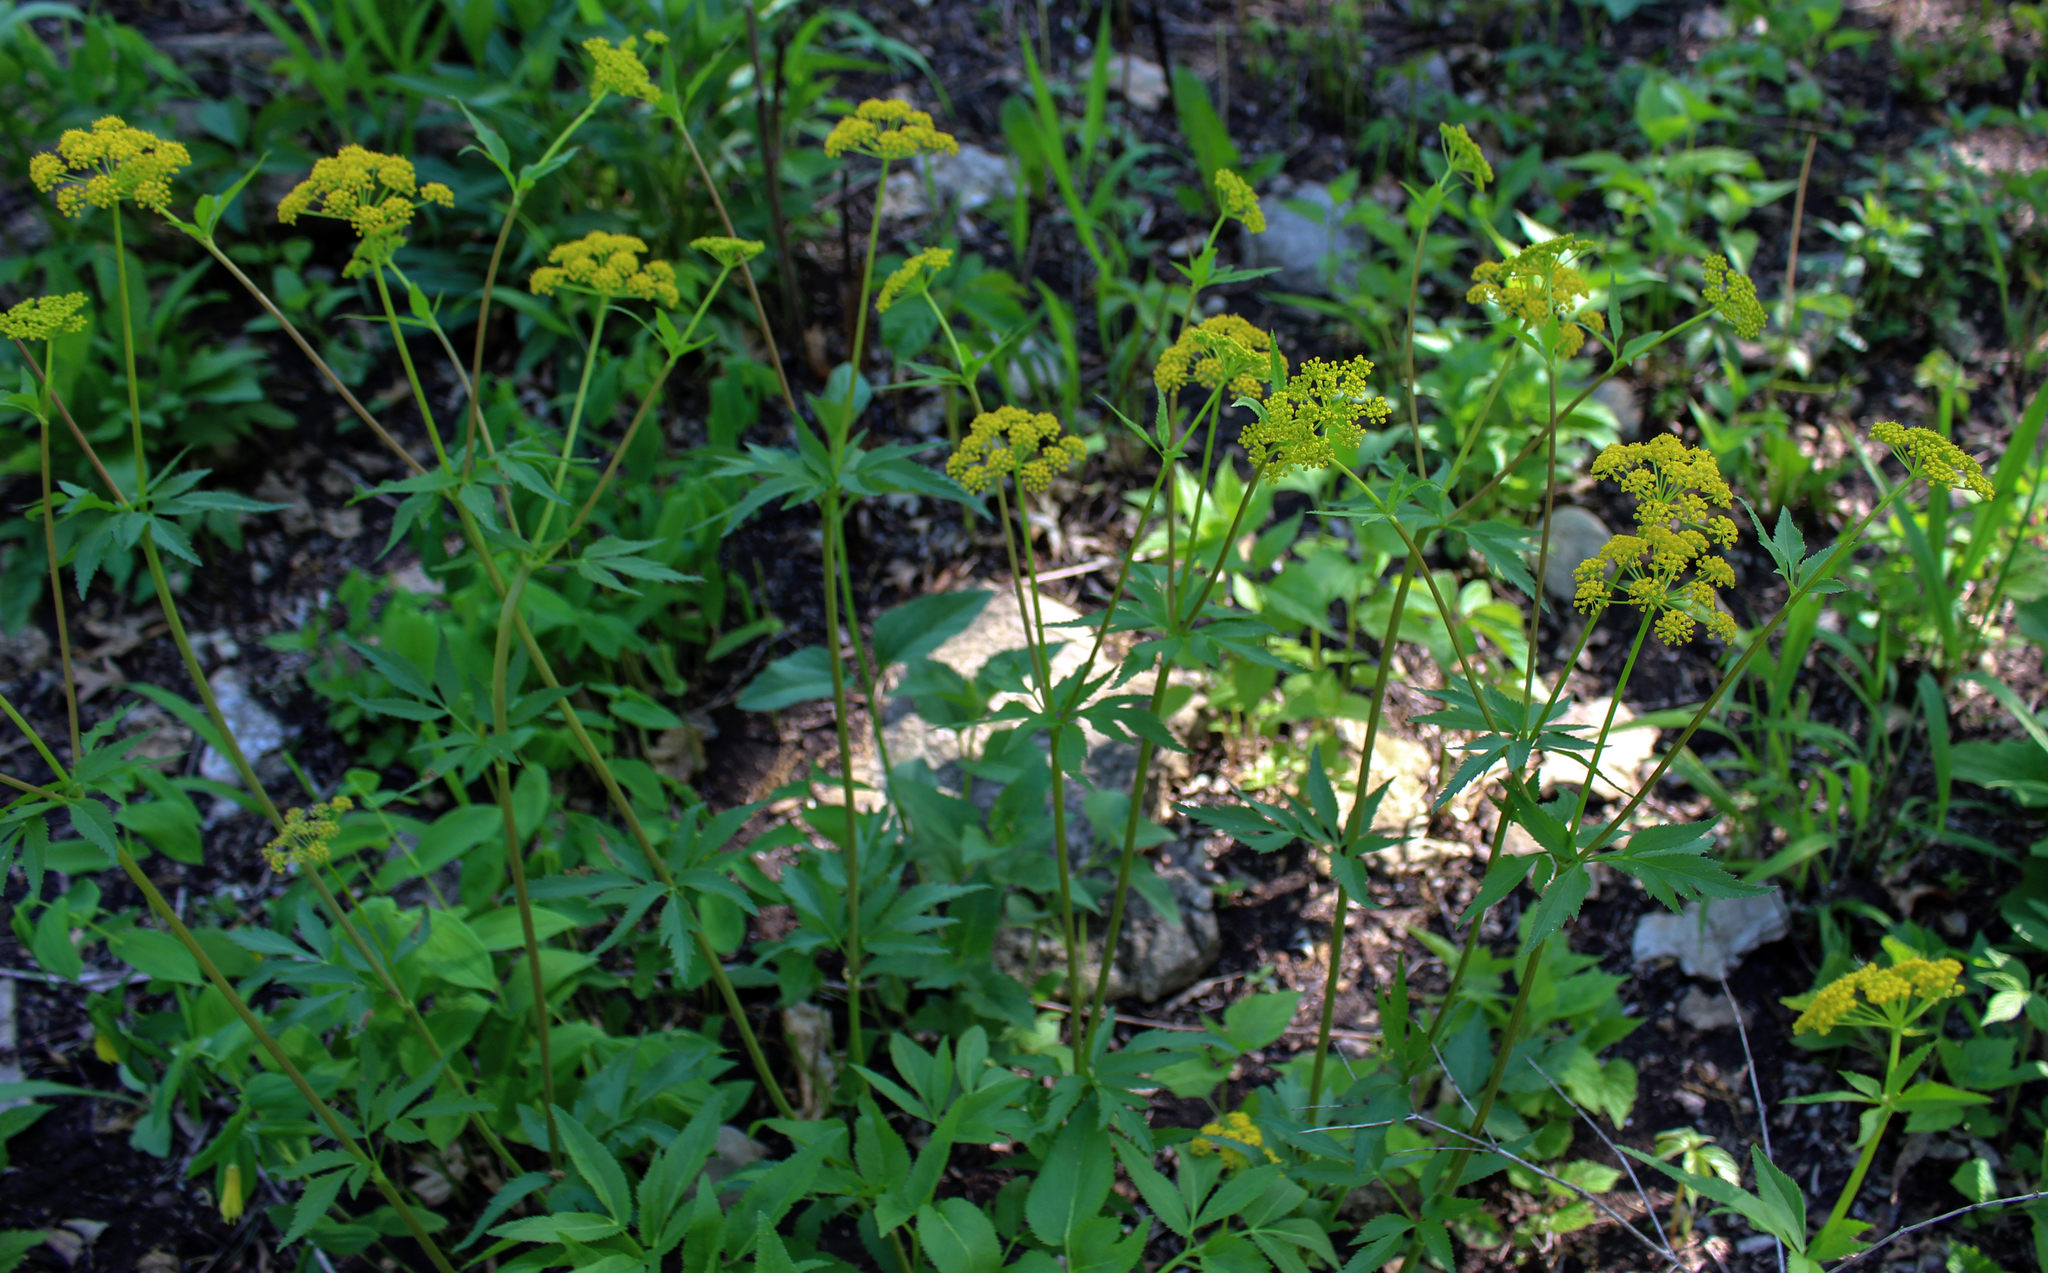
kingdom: Plantae
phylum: Tracheophyta
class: Magnoliopsida
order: Apiales
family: Apiaceae
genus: Zizia
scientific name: Zizia aurea
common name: Golden alexanders
